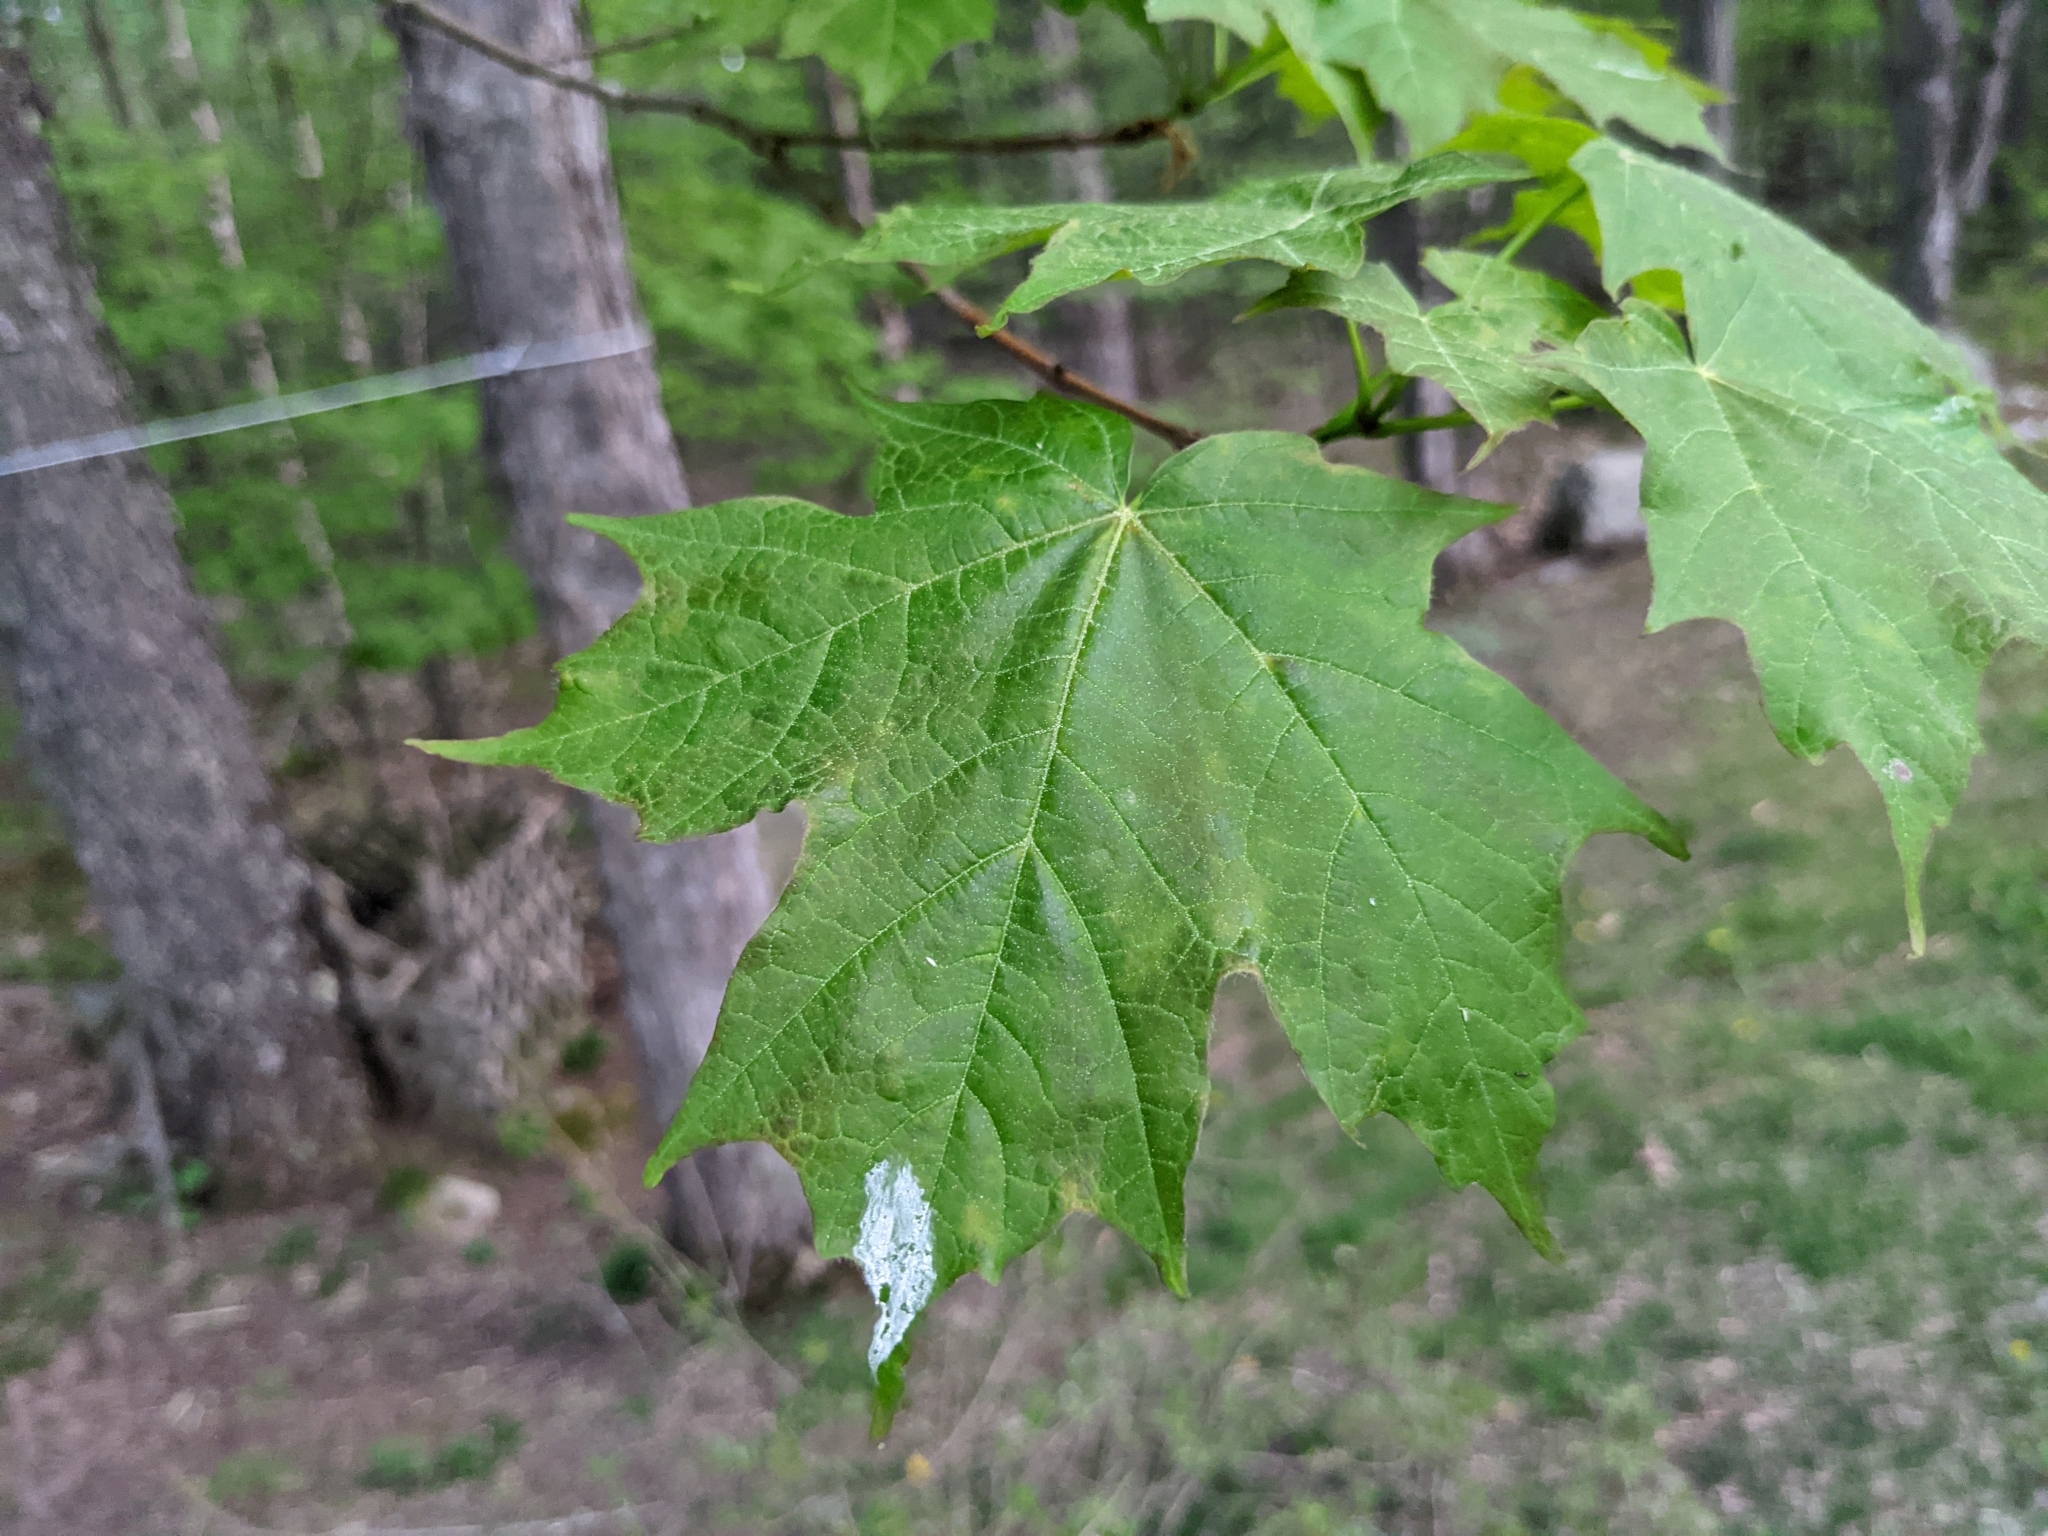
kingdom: Plantae
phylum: Tracheophyta
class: Magnoliopsida
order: Sapindales
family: Sapindaceae
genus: Acer
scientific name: Acer saccharum
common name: Sugar maple
